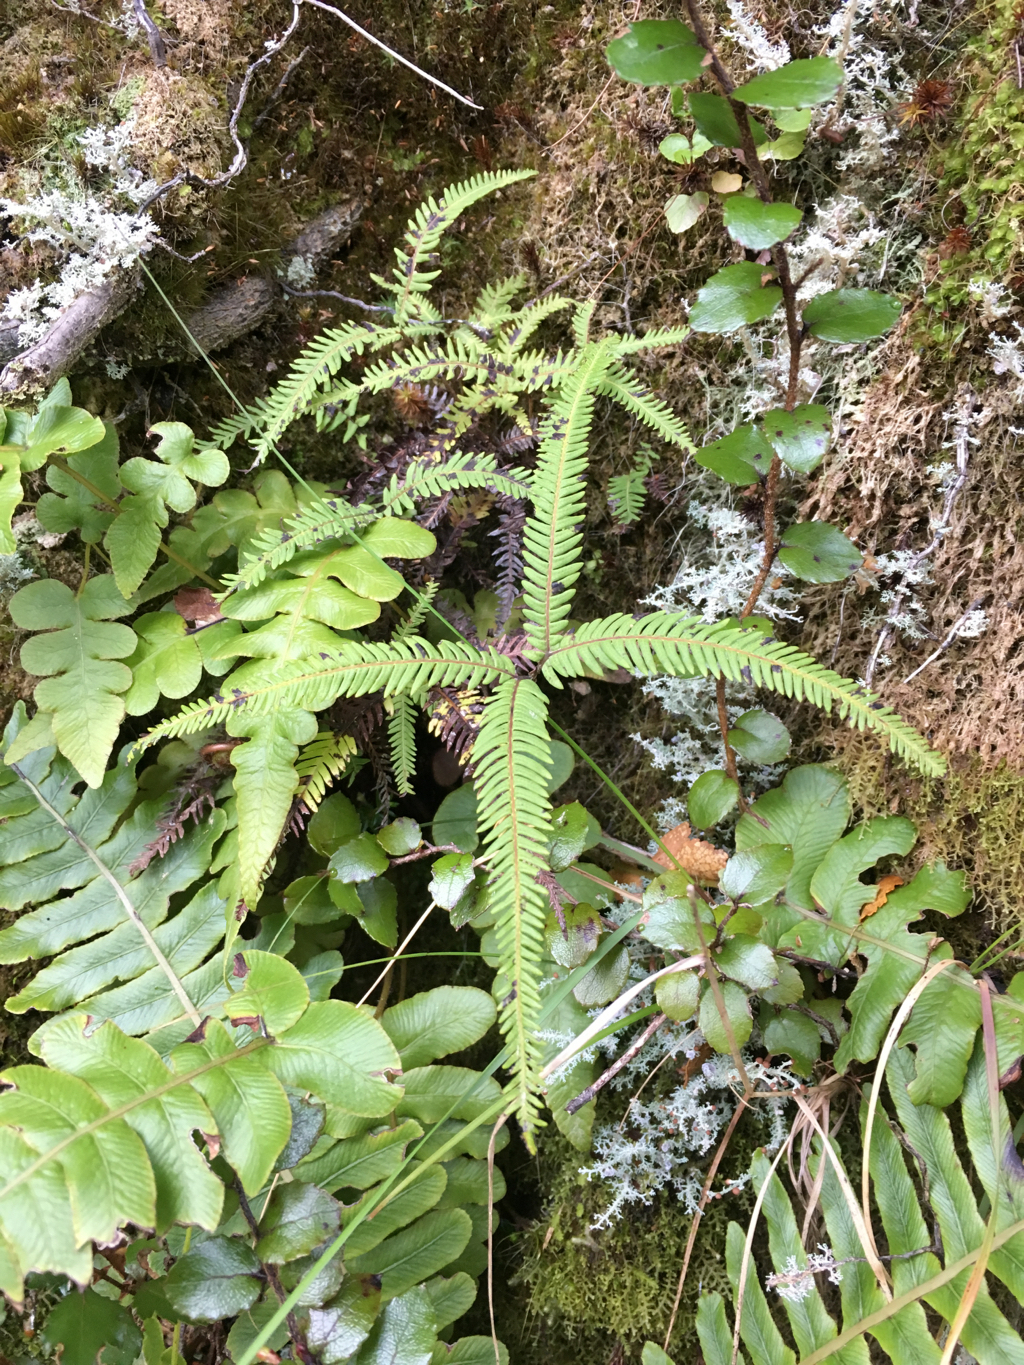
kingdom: Plantae
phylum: Tracheophyta
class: Polypodiopsida
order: Gleicheniales
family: Gleicheniaceae
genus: Sticherus
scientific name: Sticherus cunninghamii
